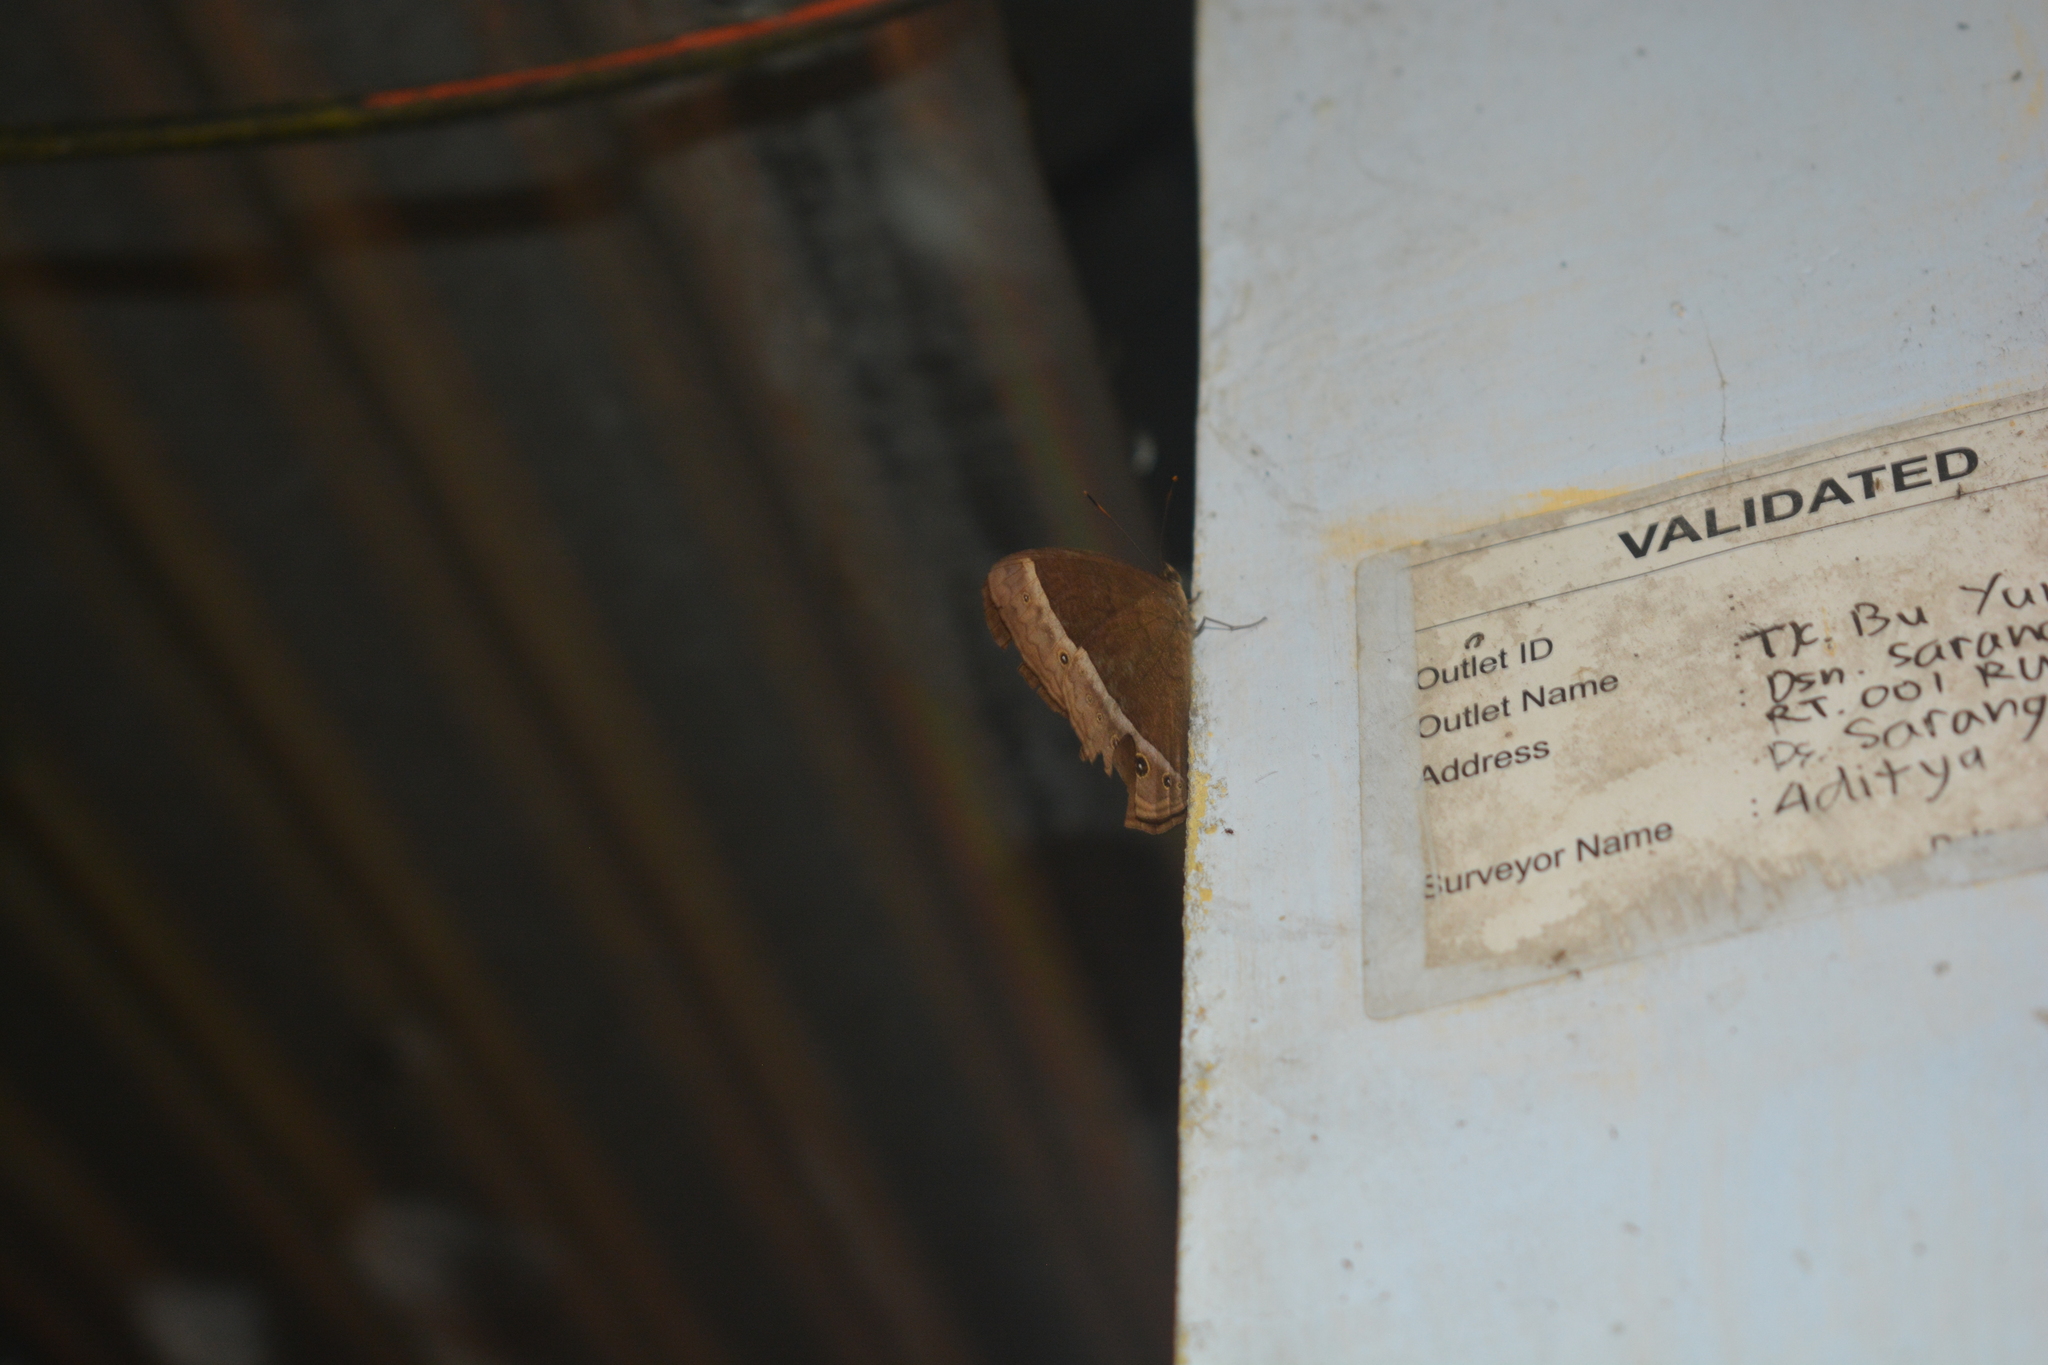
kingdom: Animalia
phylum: Arthropoda
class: Insecta
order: Lepidoptera
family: Nymphalidae
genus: Mycalesis
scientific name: Mycalesis sudra
